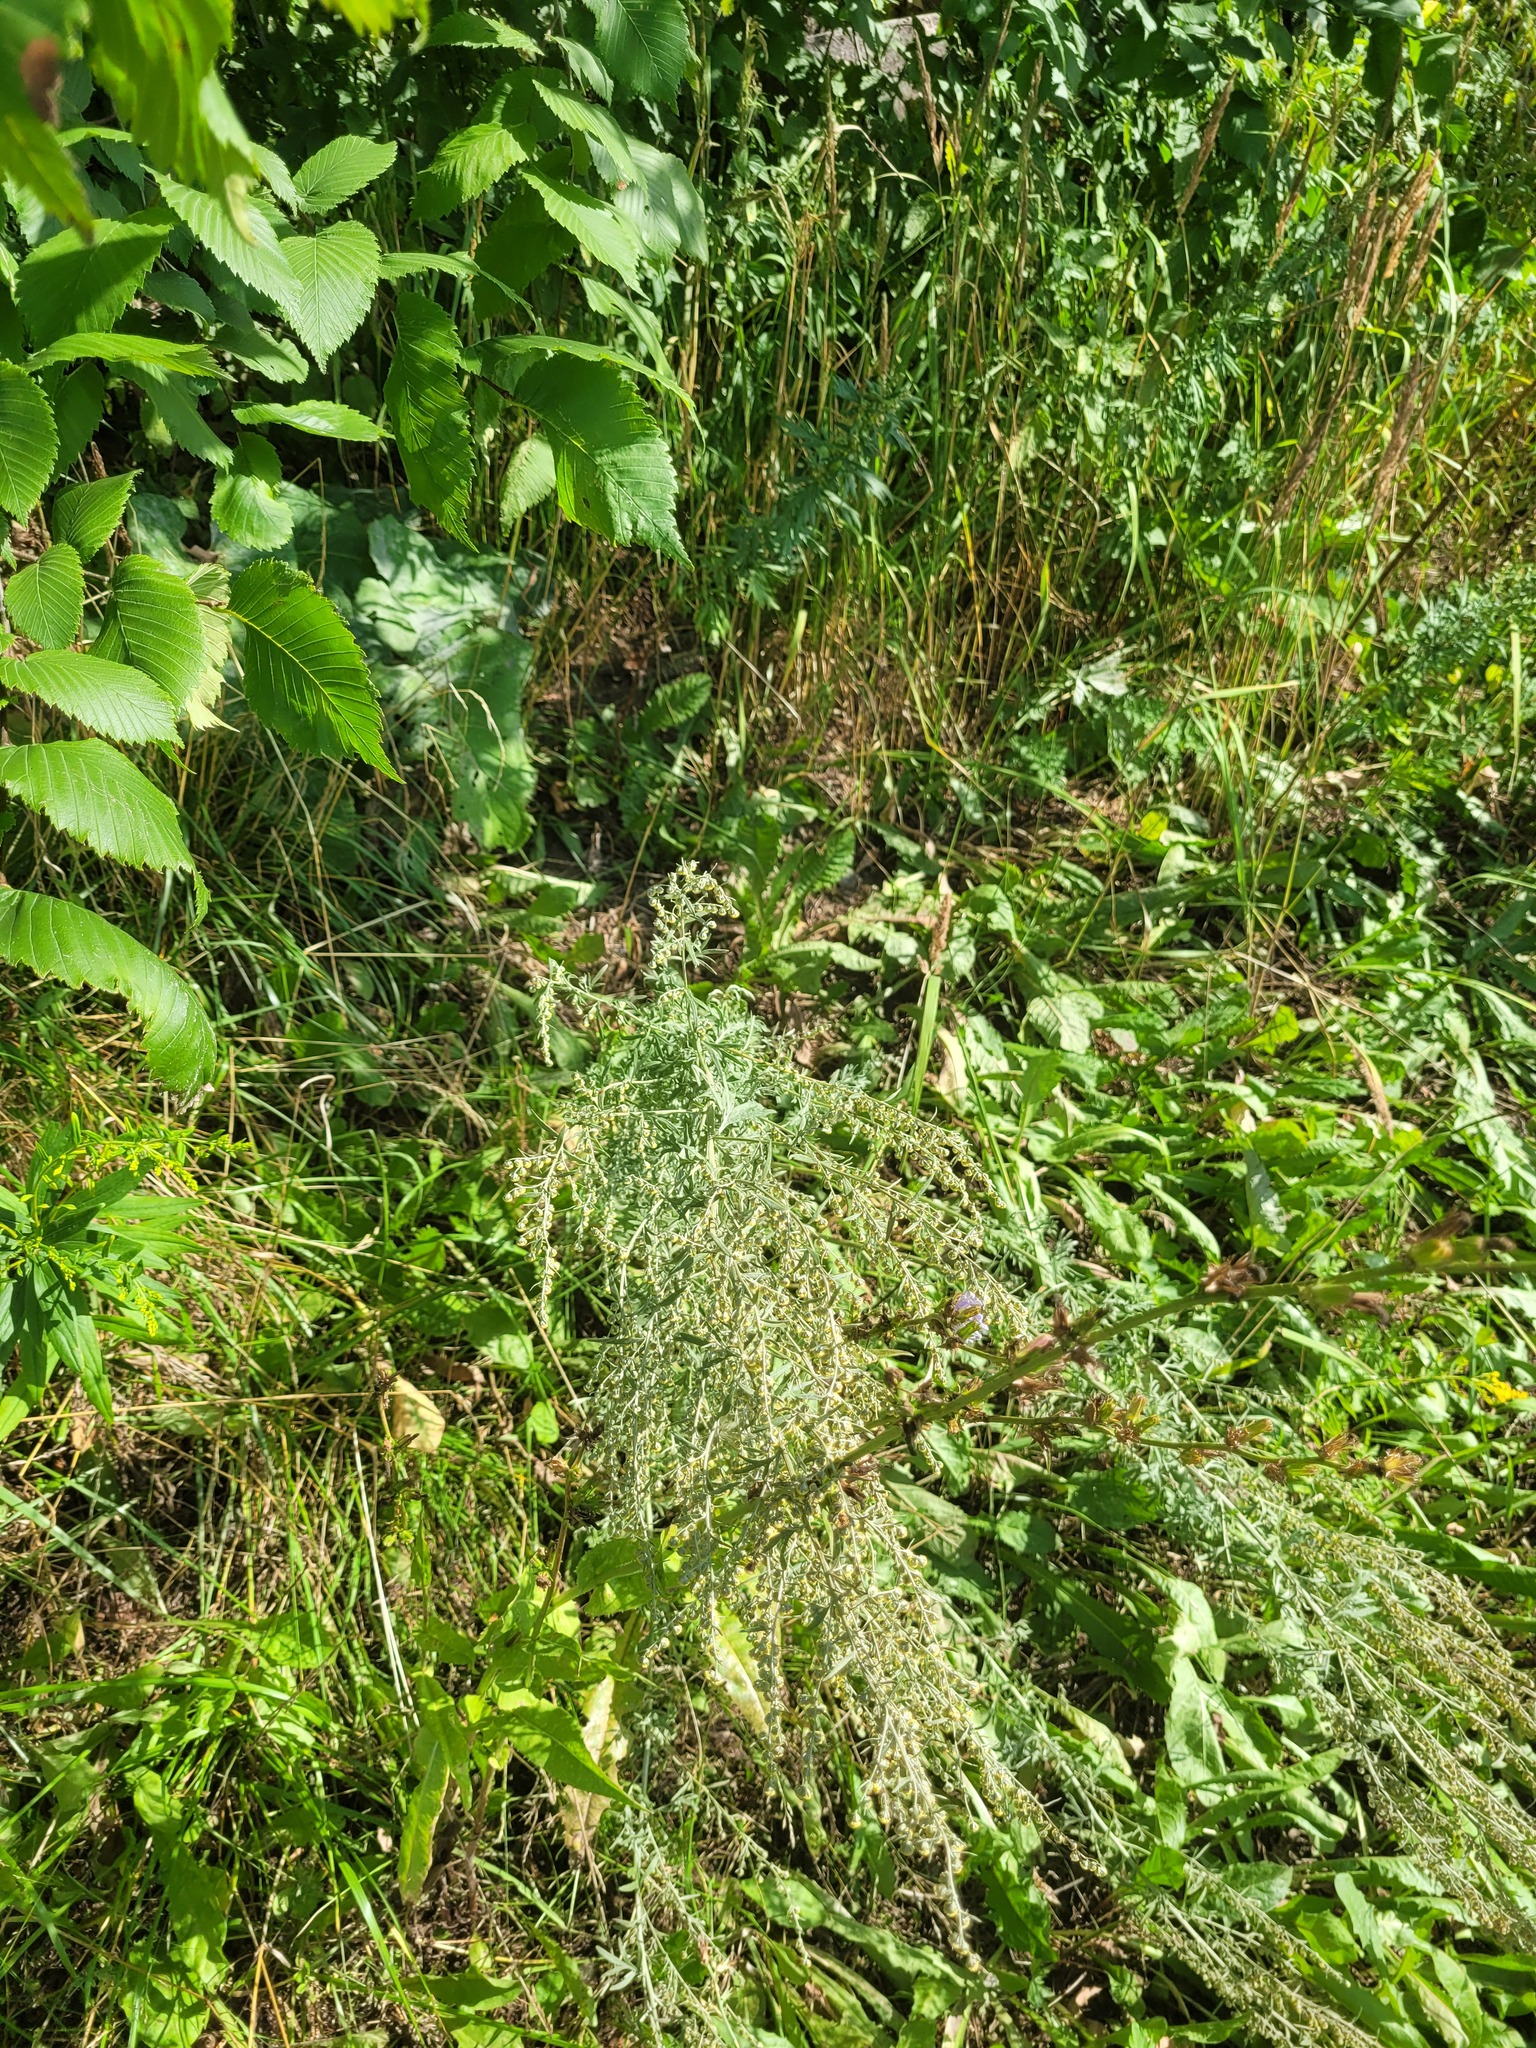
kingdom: Plantae
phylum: Tracheophyta
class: Magnoliopsida
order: Asterales
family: Asteraceae
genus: Artemisia
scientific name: Artemisia absinthium
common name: Wormwood
